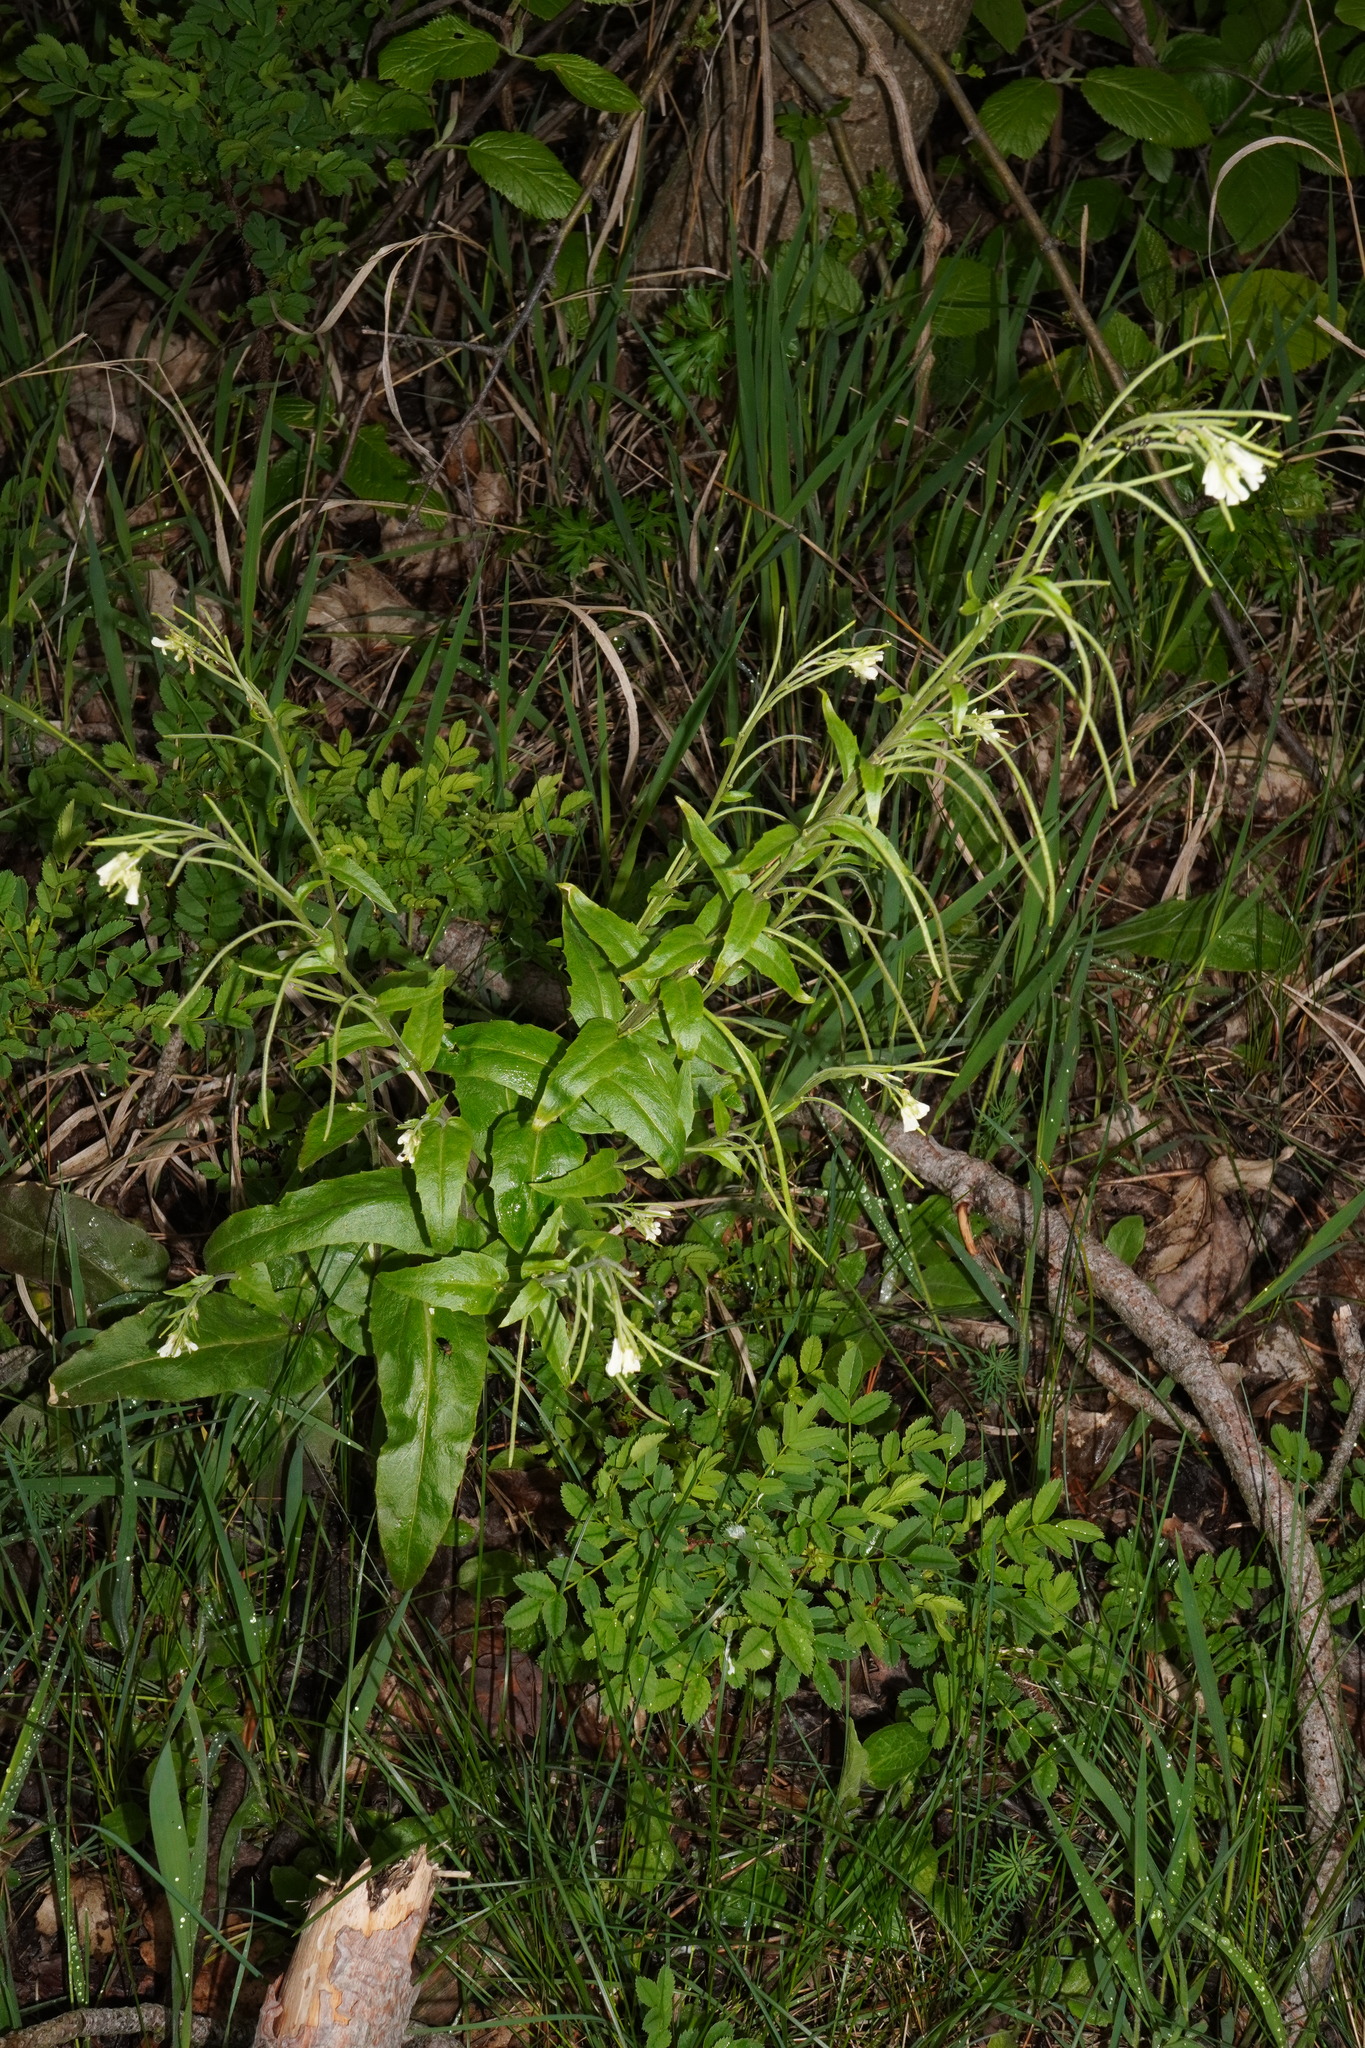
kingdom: Plantae
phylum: Tracheophyta
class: Magnoliopsida
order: Brassicales
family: Brassicaceae
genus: Pseudoturritis
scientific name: Pseudoturritis turrita
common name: Tower cress
